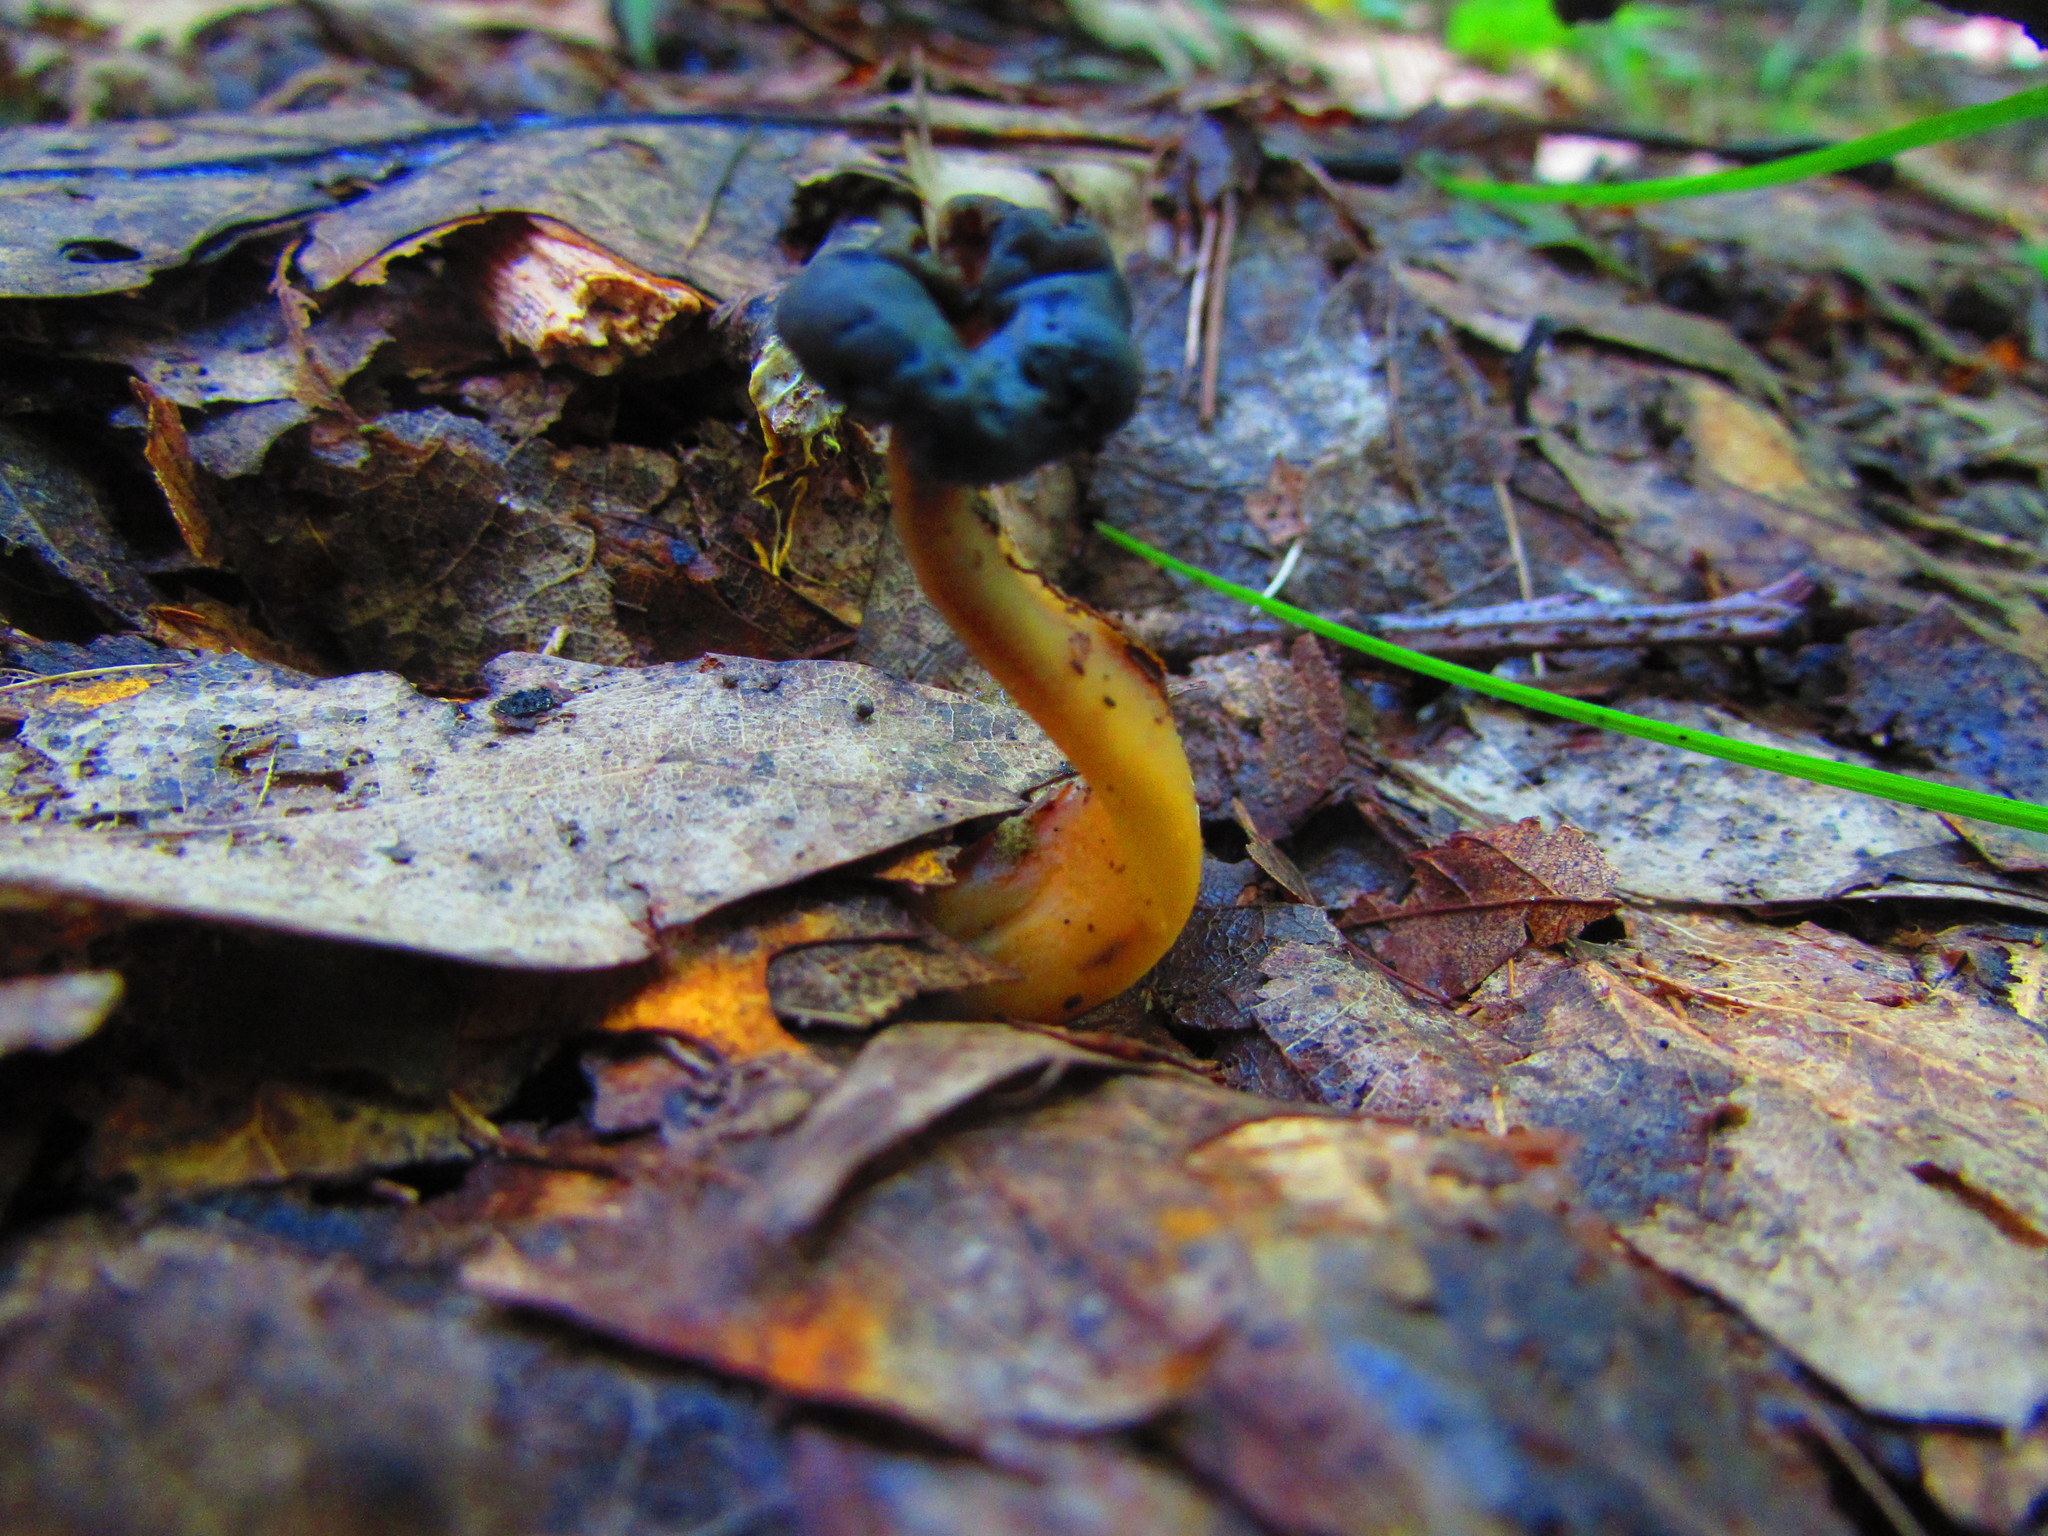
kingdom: Fungi
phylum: Ascomycota
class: Leotiomycetes
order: Leotiales
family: Leotiaceae
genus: Leotia
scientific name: Leotia lubrica
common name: Jellybaby
